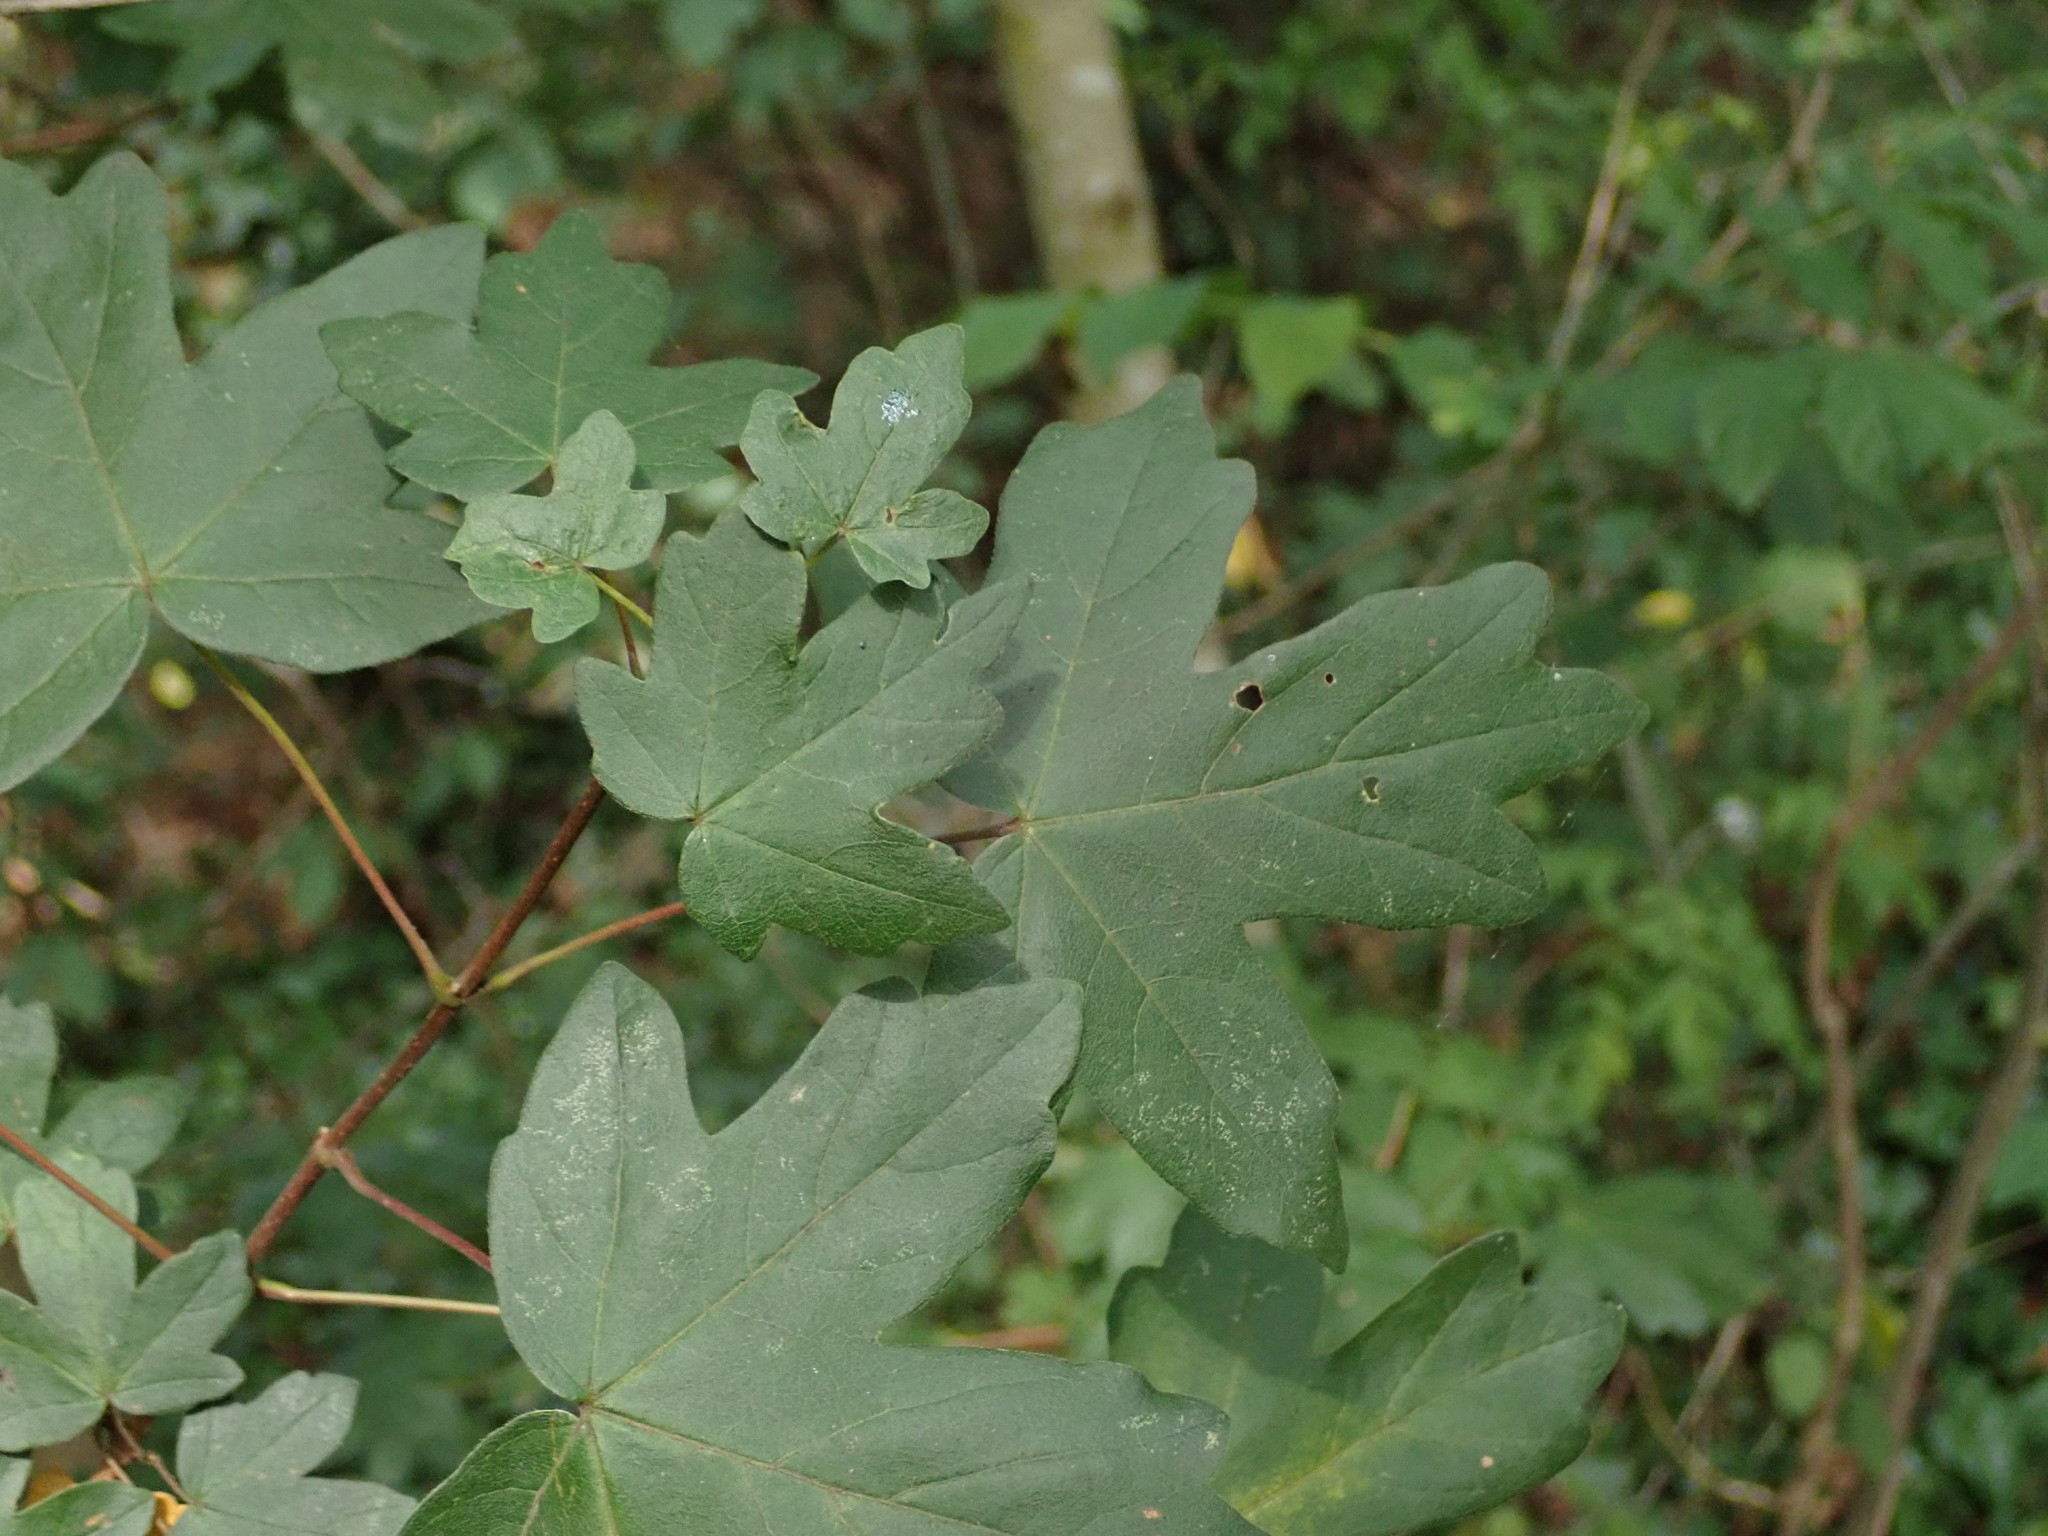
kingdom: Plantae
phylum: Tracheophyta
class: Magnoliopsida
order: Sapindales
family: Sapindaceae
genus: Acer
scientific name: Acer campestre
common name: Field maple
